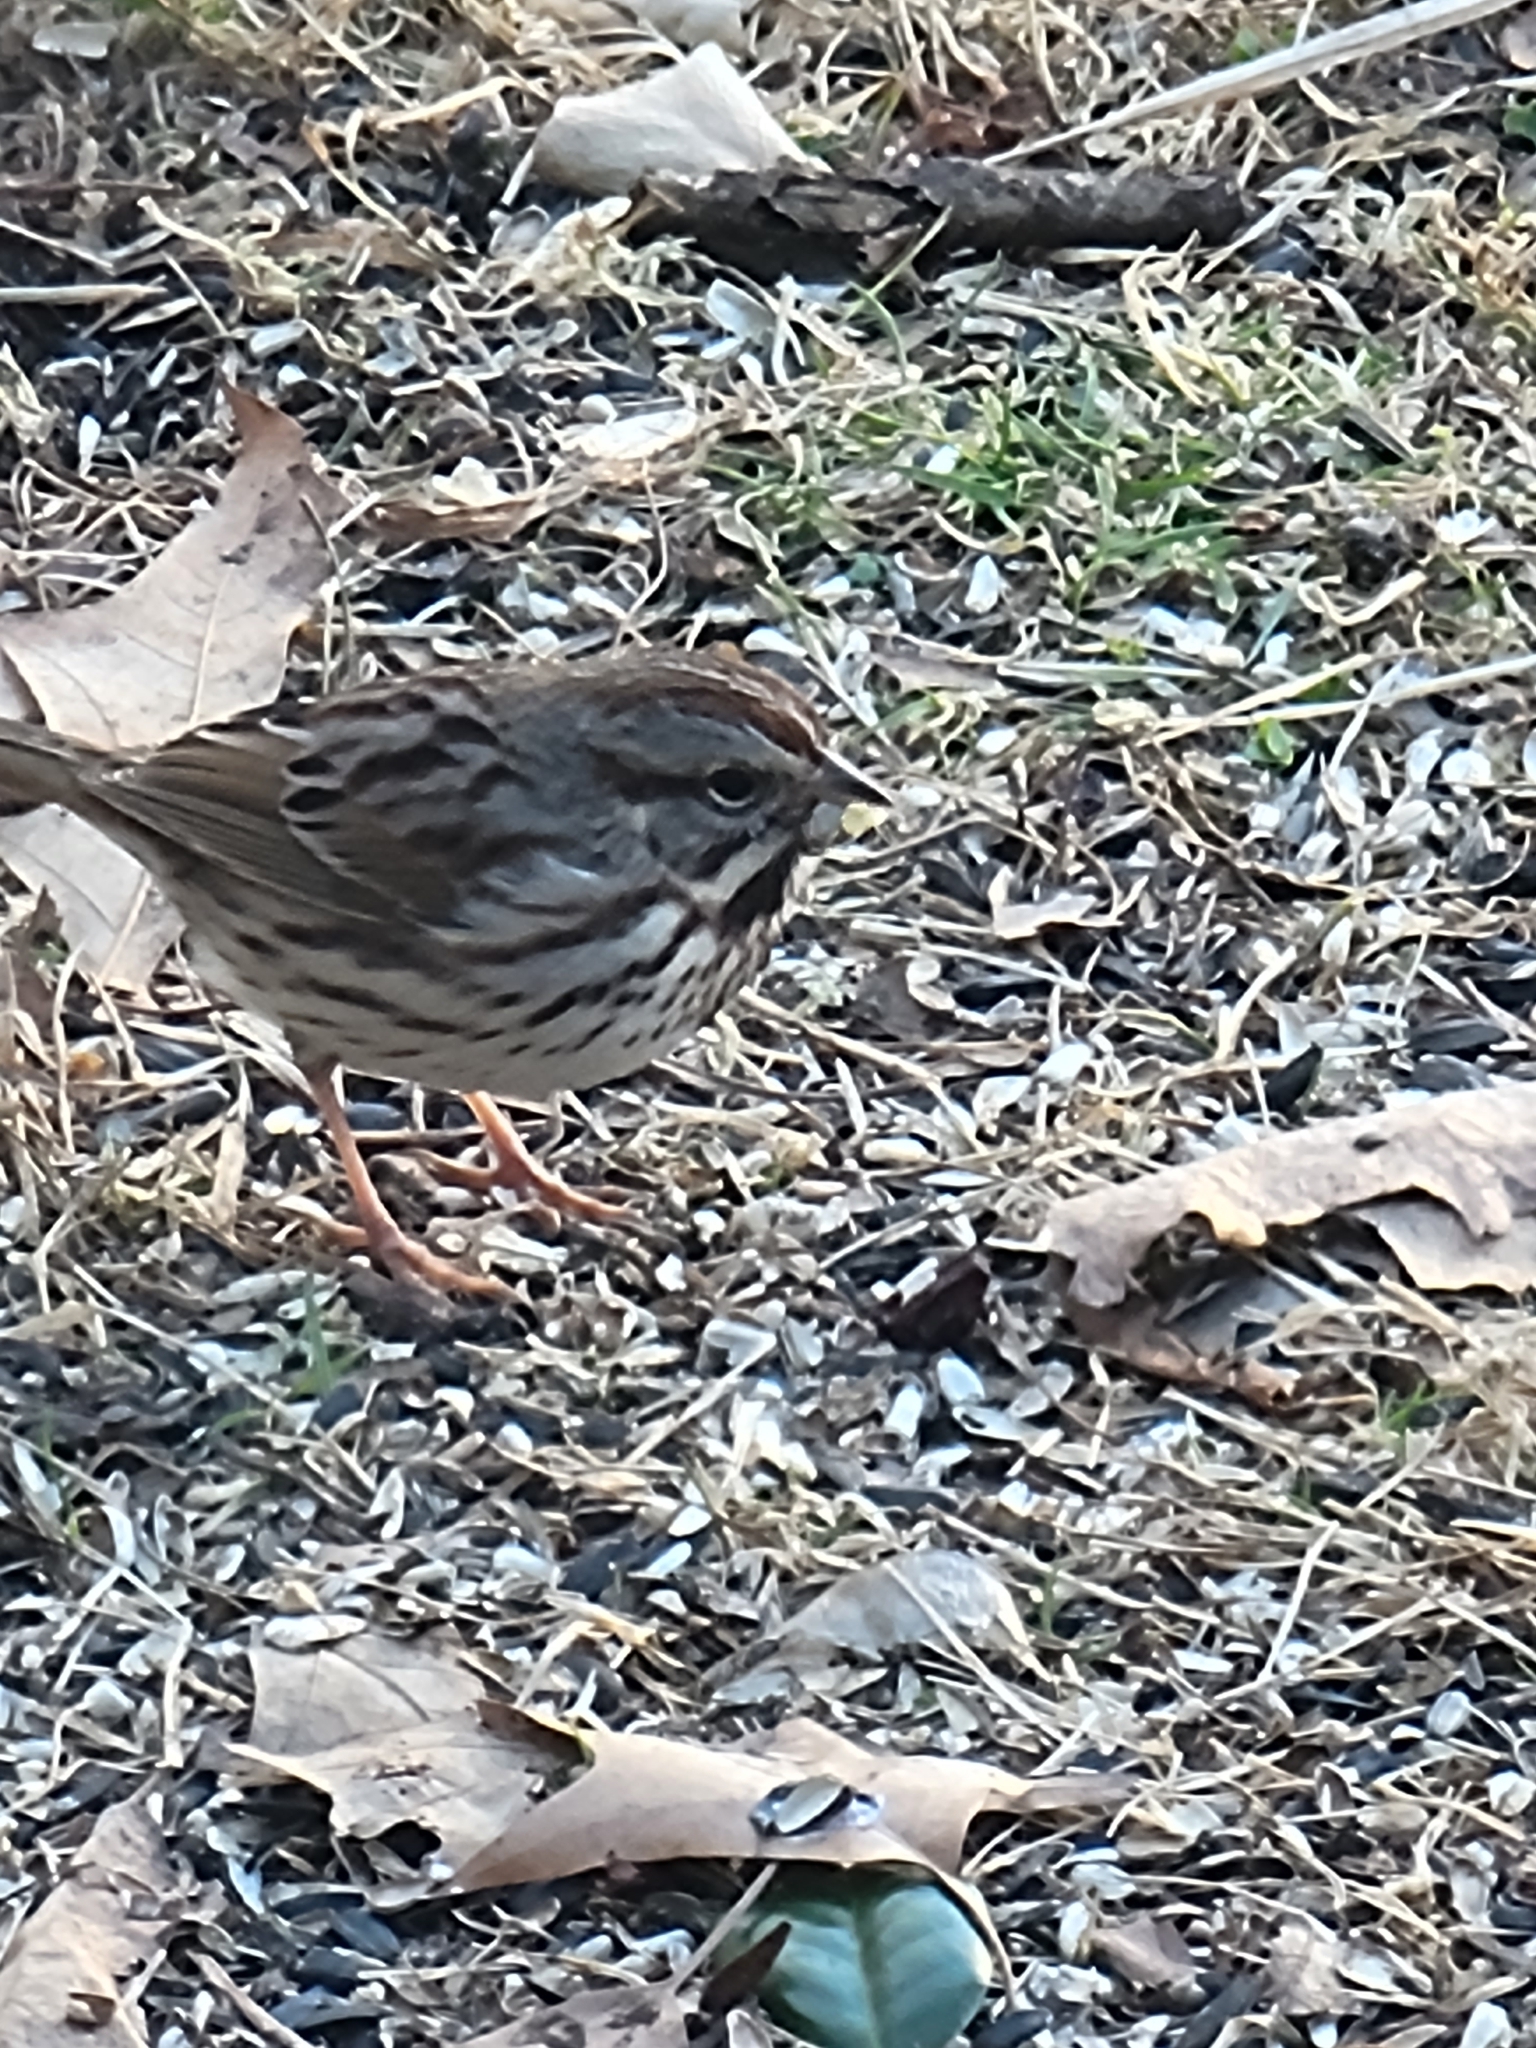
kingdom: Animalia
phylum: Chordata
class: Aves
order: Passeriformes
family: Passerellidae
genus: Melospiza
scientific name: Melospiza melodia
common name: Song sparrow
